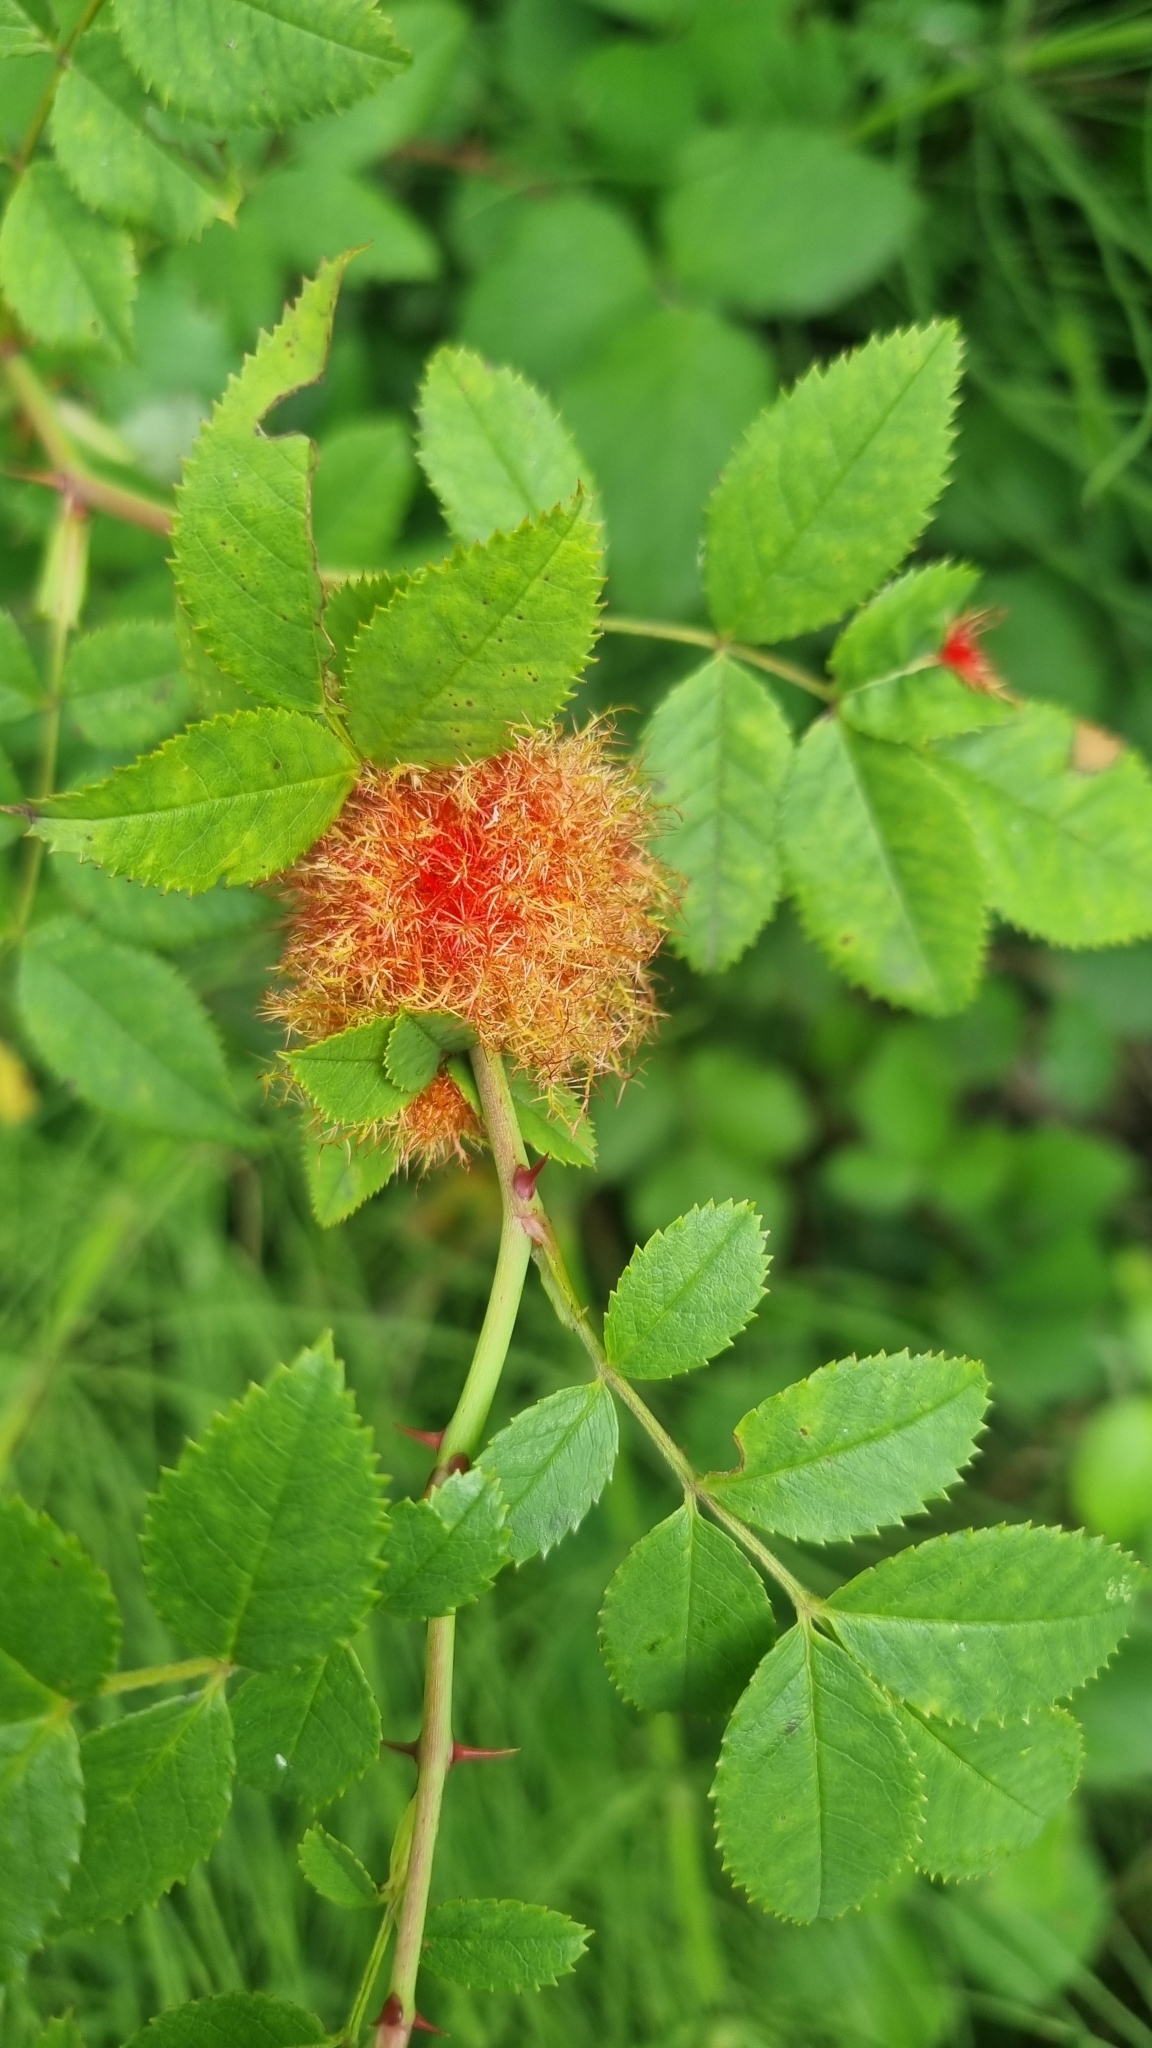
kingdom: Animalia
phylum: Arthropoda
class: Insecta
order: Hymenoptera
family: Cynipidae
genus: Diplolepis
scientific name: Diplolepis rosae
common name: Bedeguar gall
